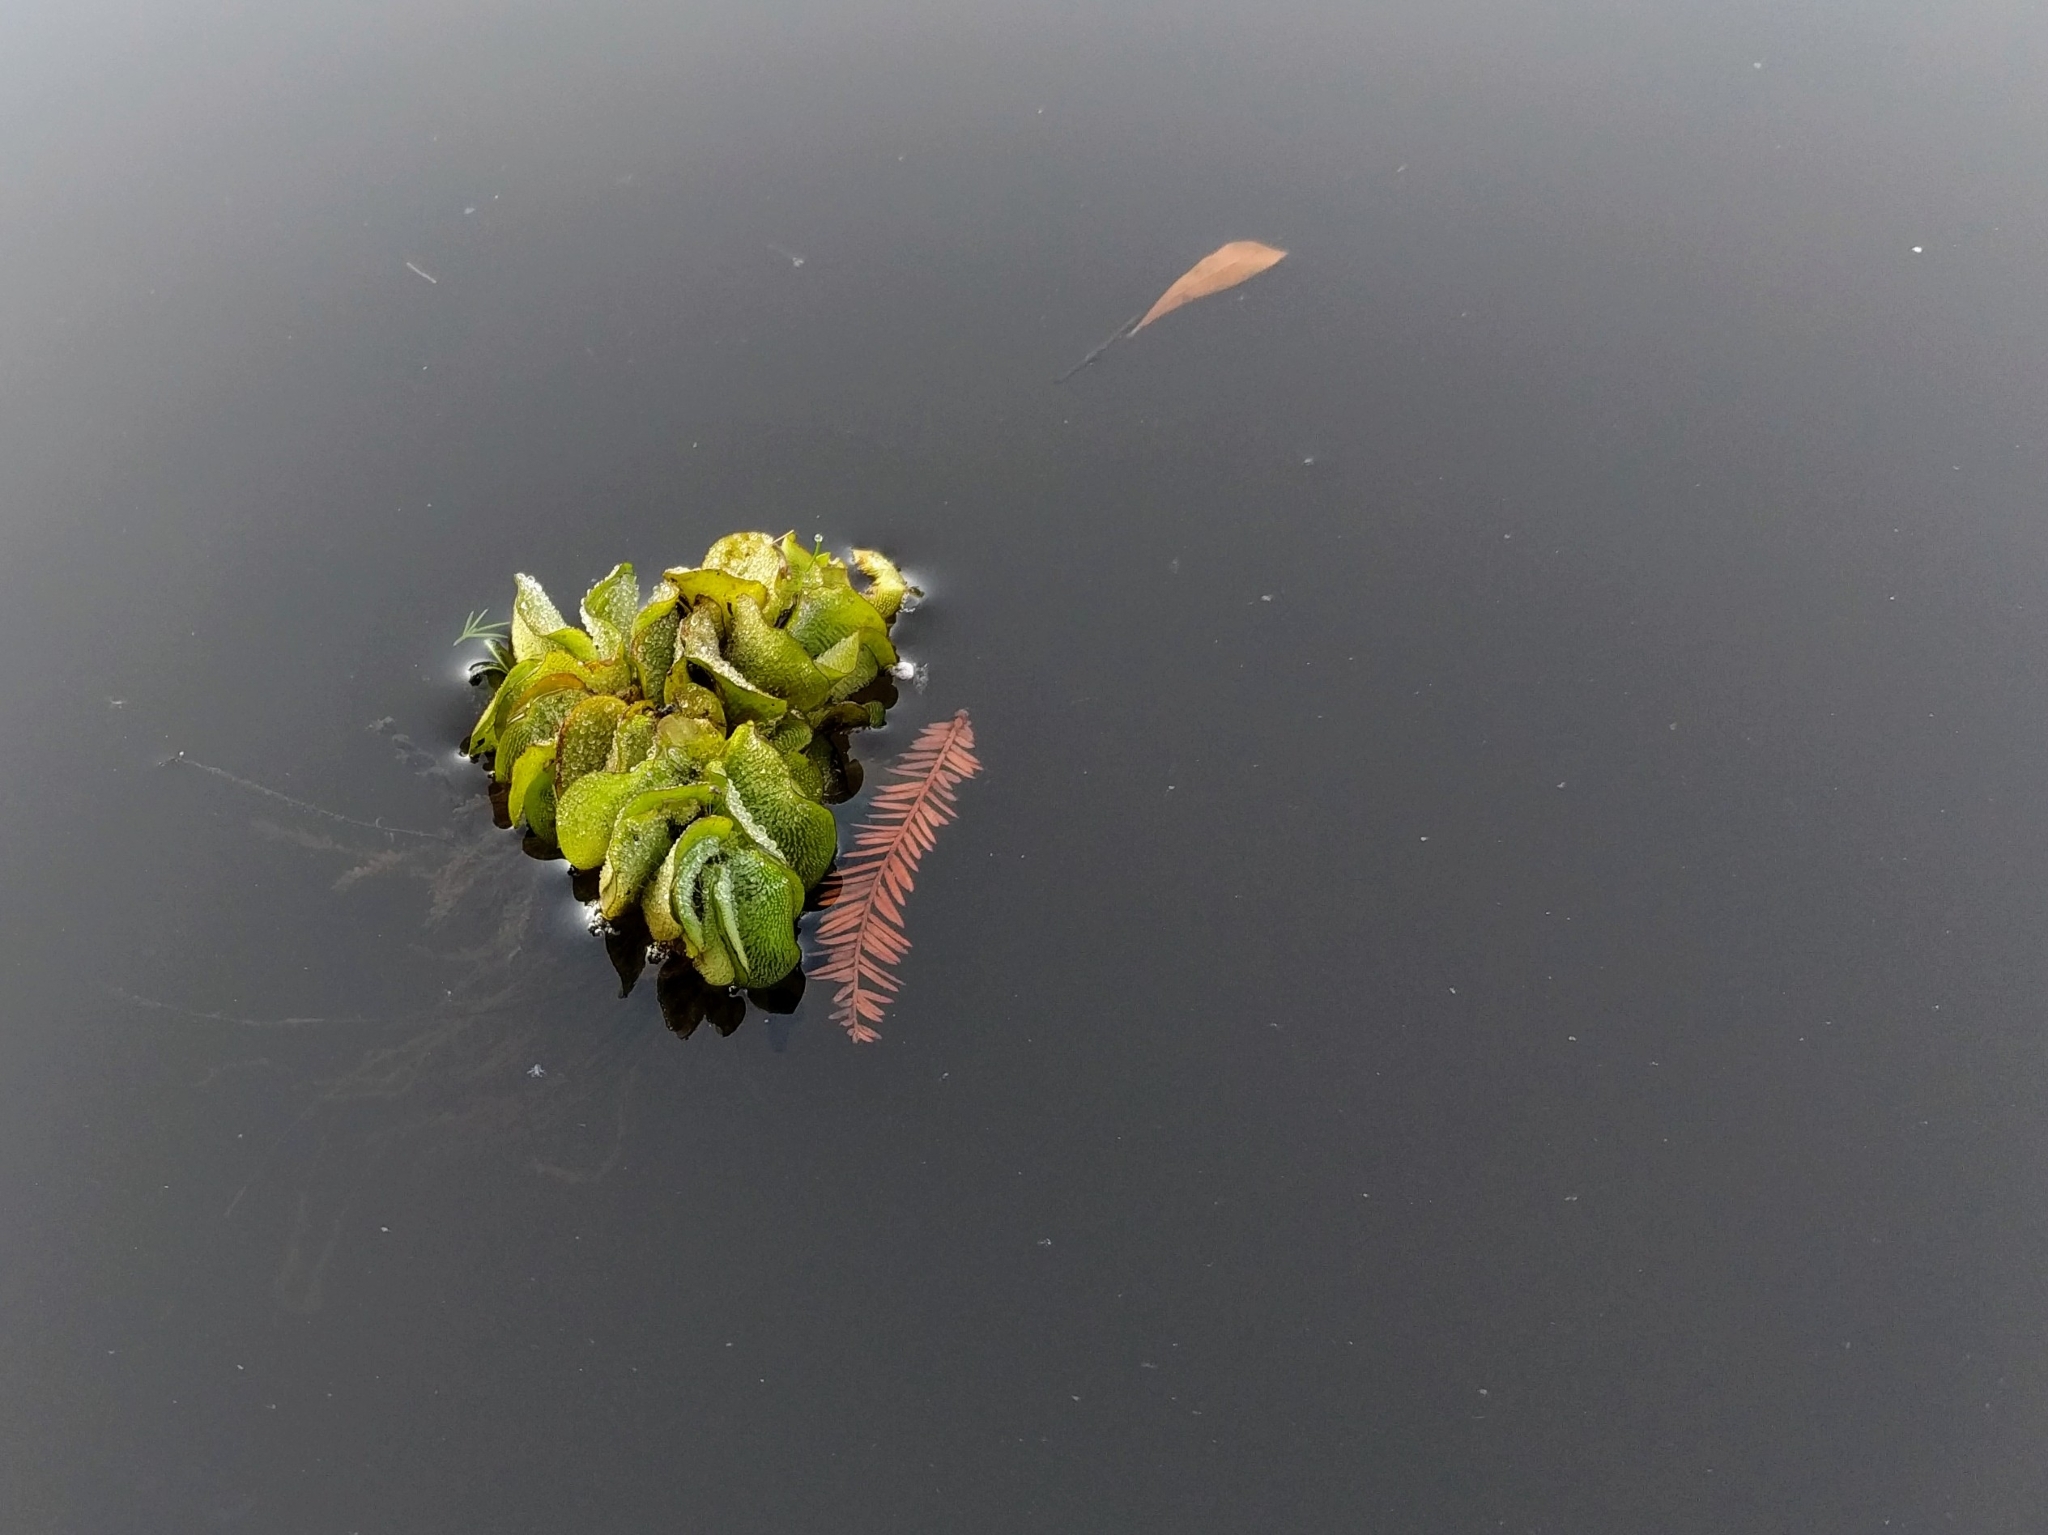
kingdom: Plantae
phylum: Tracheophyta
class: Polypodiopsida
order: Salviniales
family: Salviniaceae
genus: Salvinia
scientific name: Salvinia molesta
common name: Kariba weed
